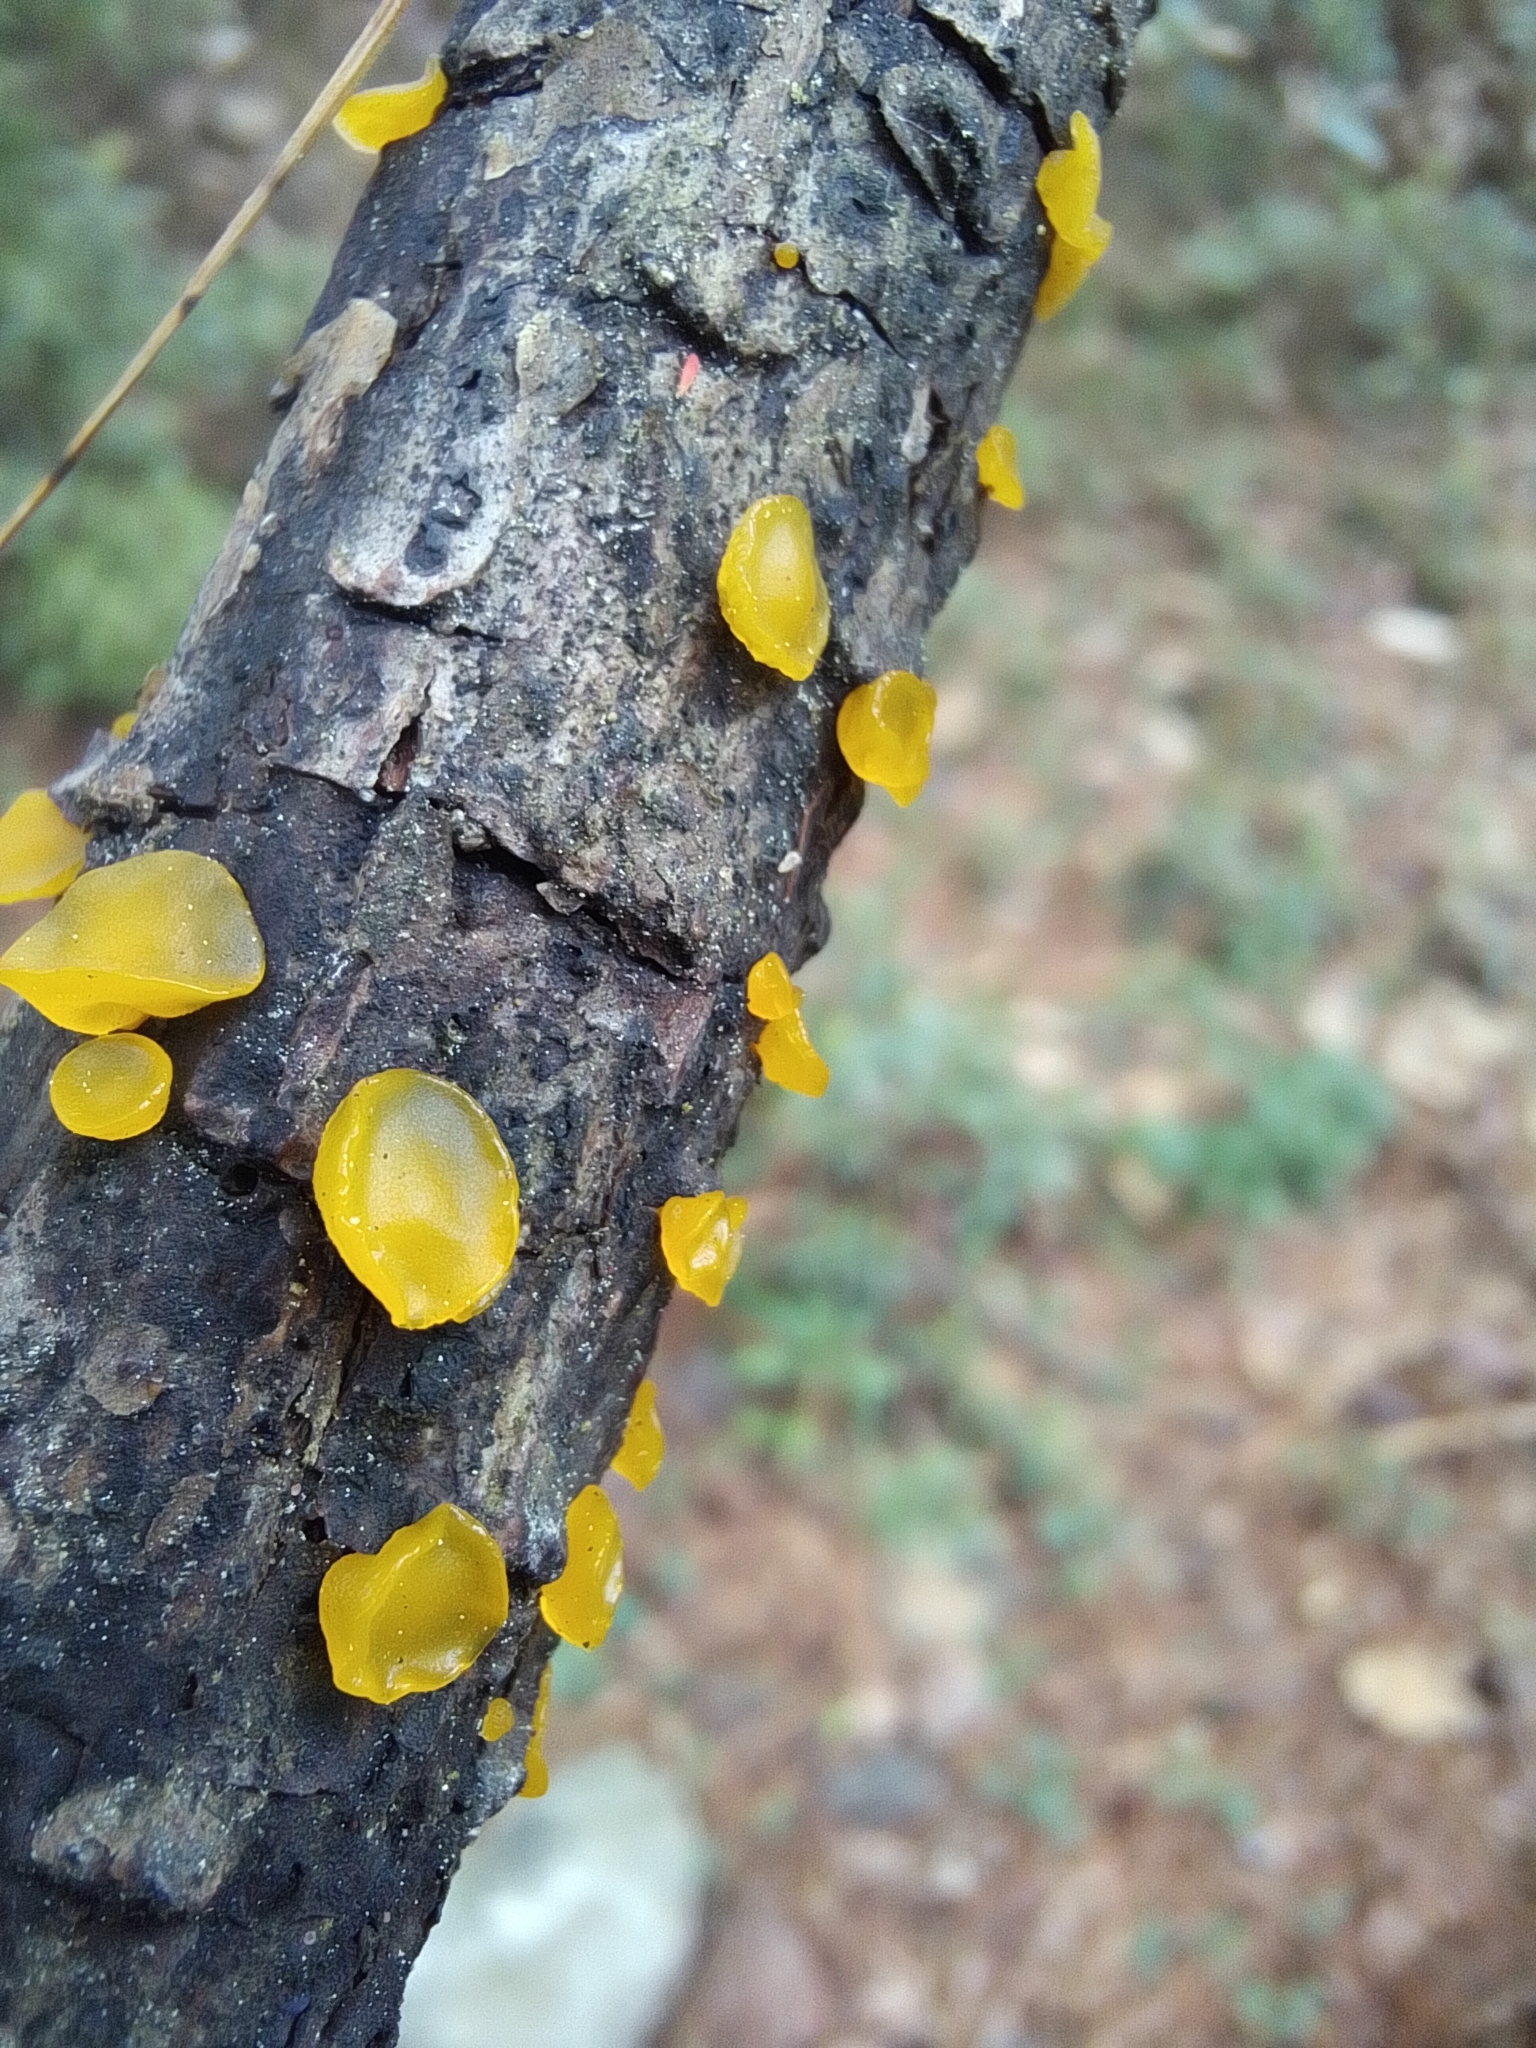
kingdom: Fungi
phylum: Basidiomycota
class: Dacrymycetes
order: Dacrymycetales
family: Dacrymycetaceae
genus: Guepiniopsis
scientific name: Guepiniopsis alpina
